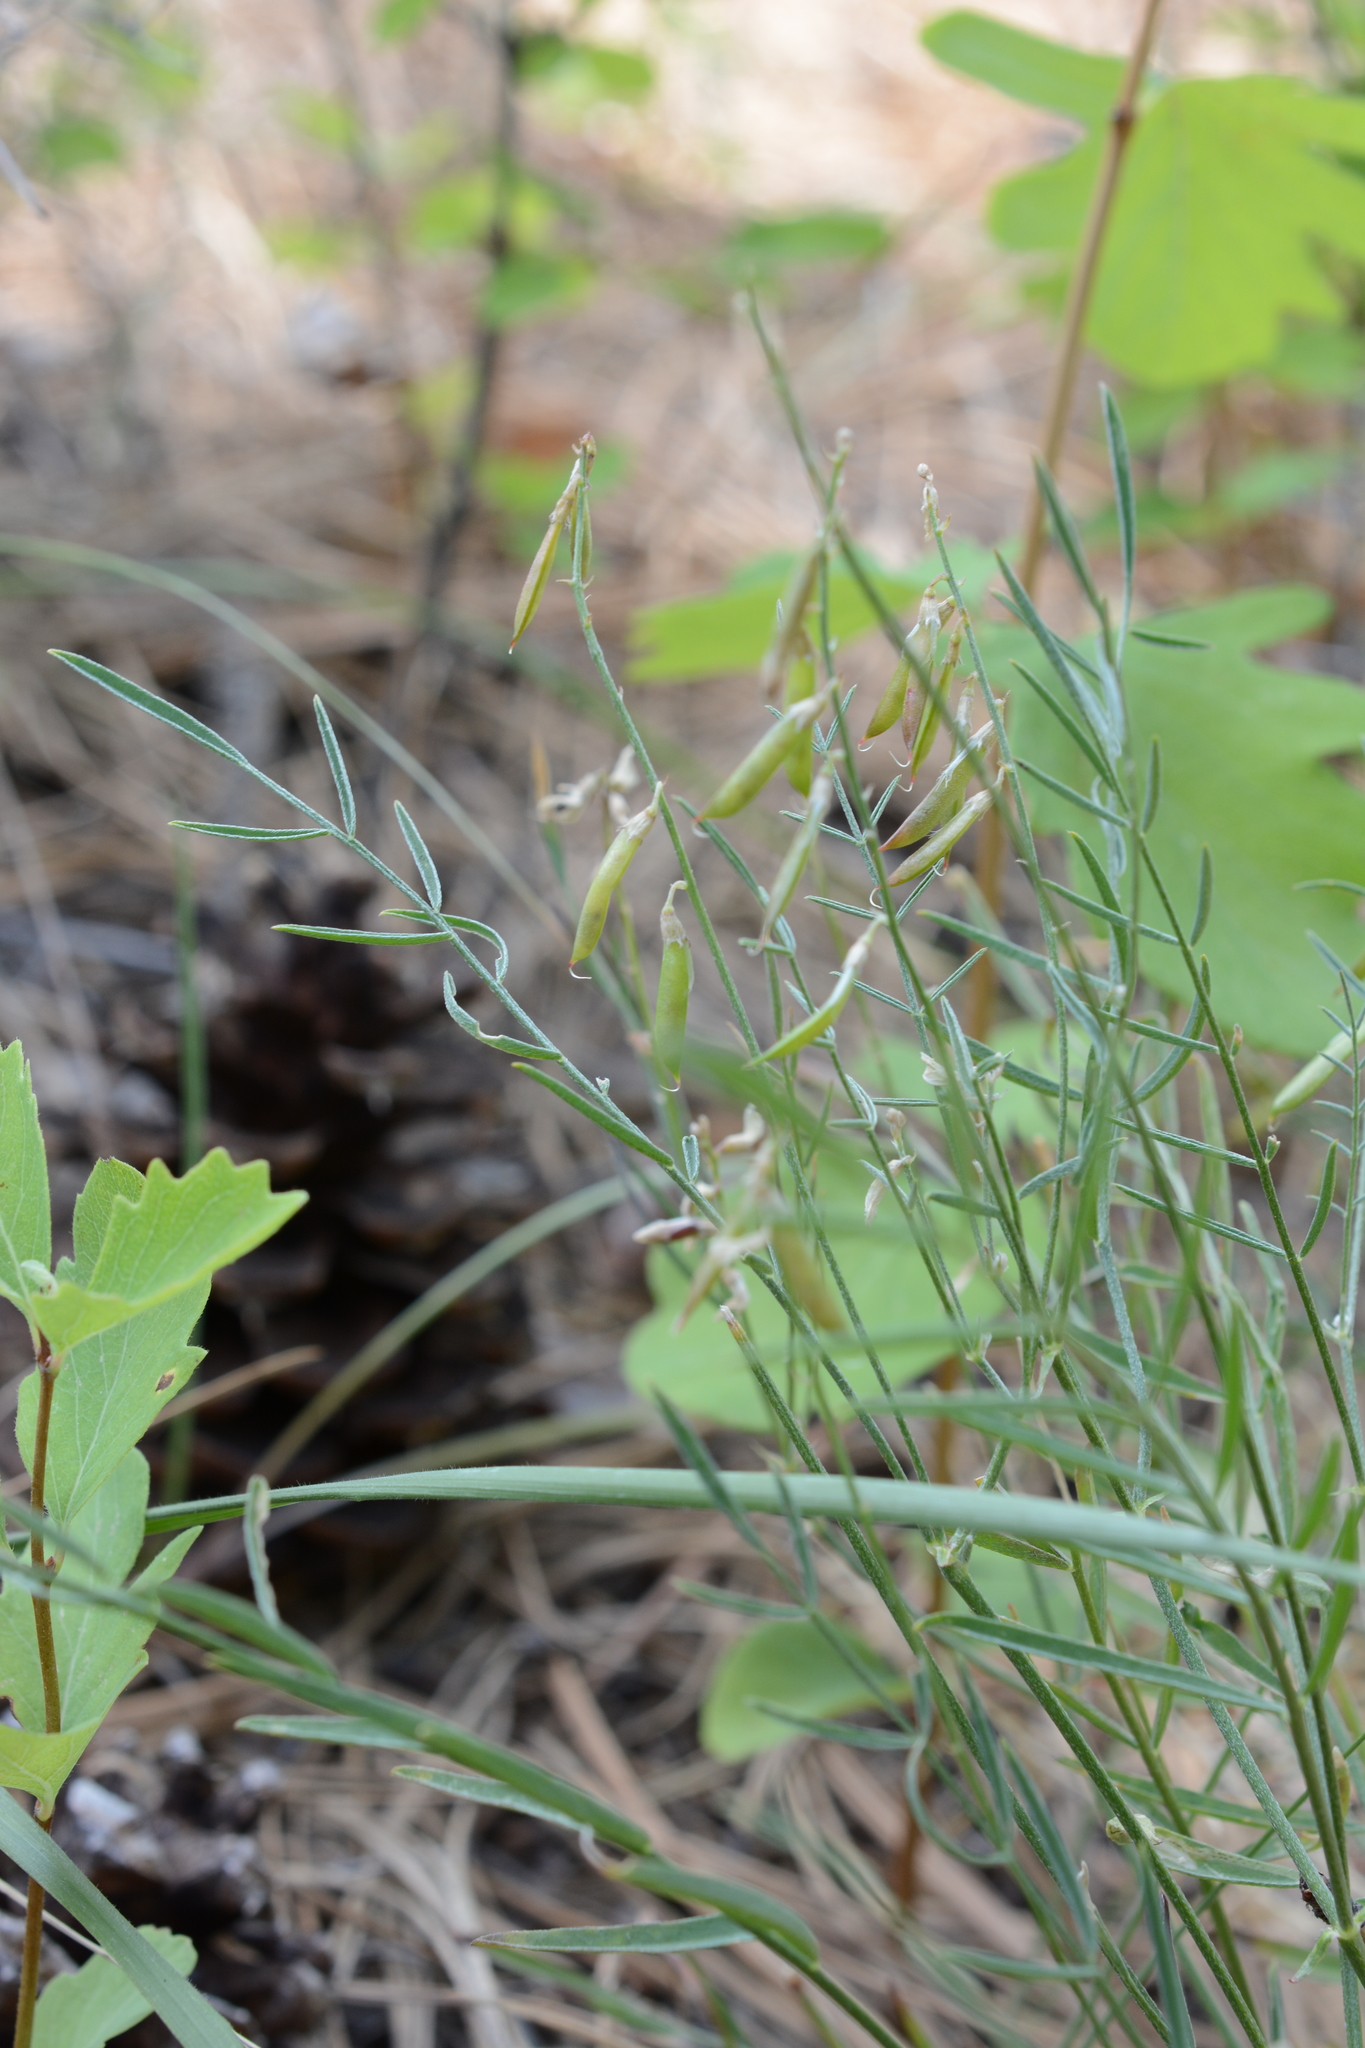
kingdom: Plantae
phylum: Tracheophyta
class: Magnoliopsida
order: Fabales
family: Fabaceae
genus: Astragalus
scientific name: Astragalus miser
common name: Timber milkvetch
